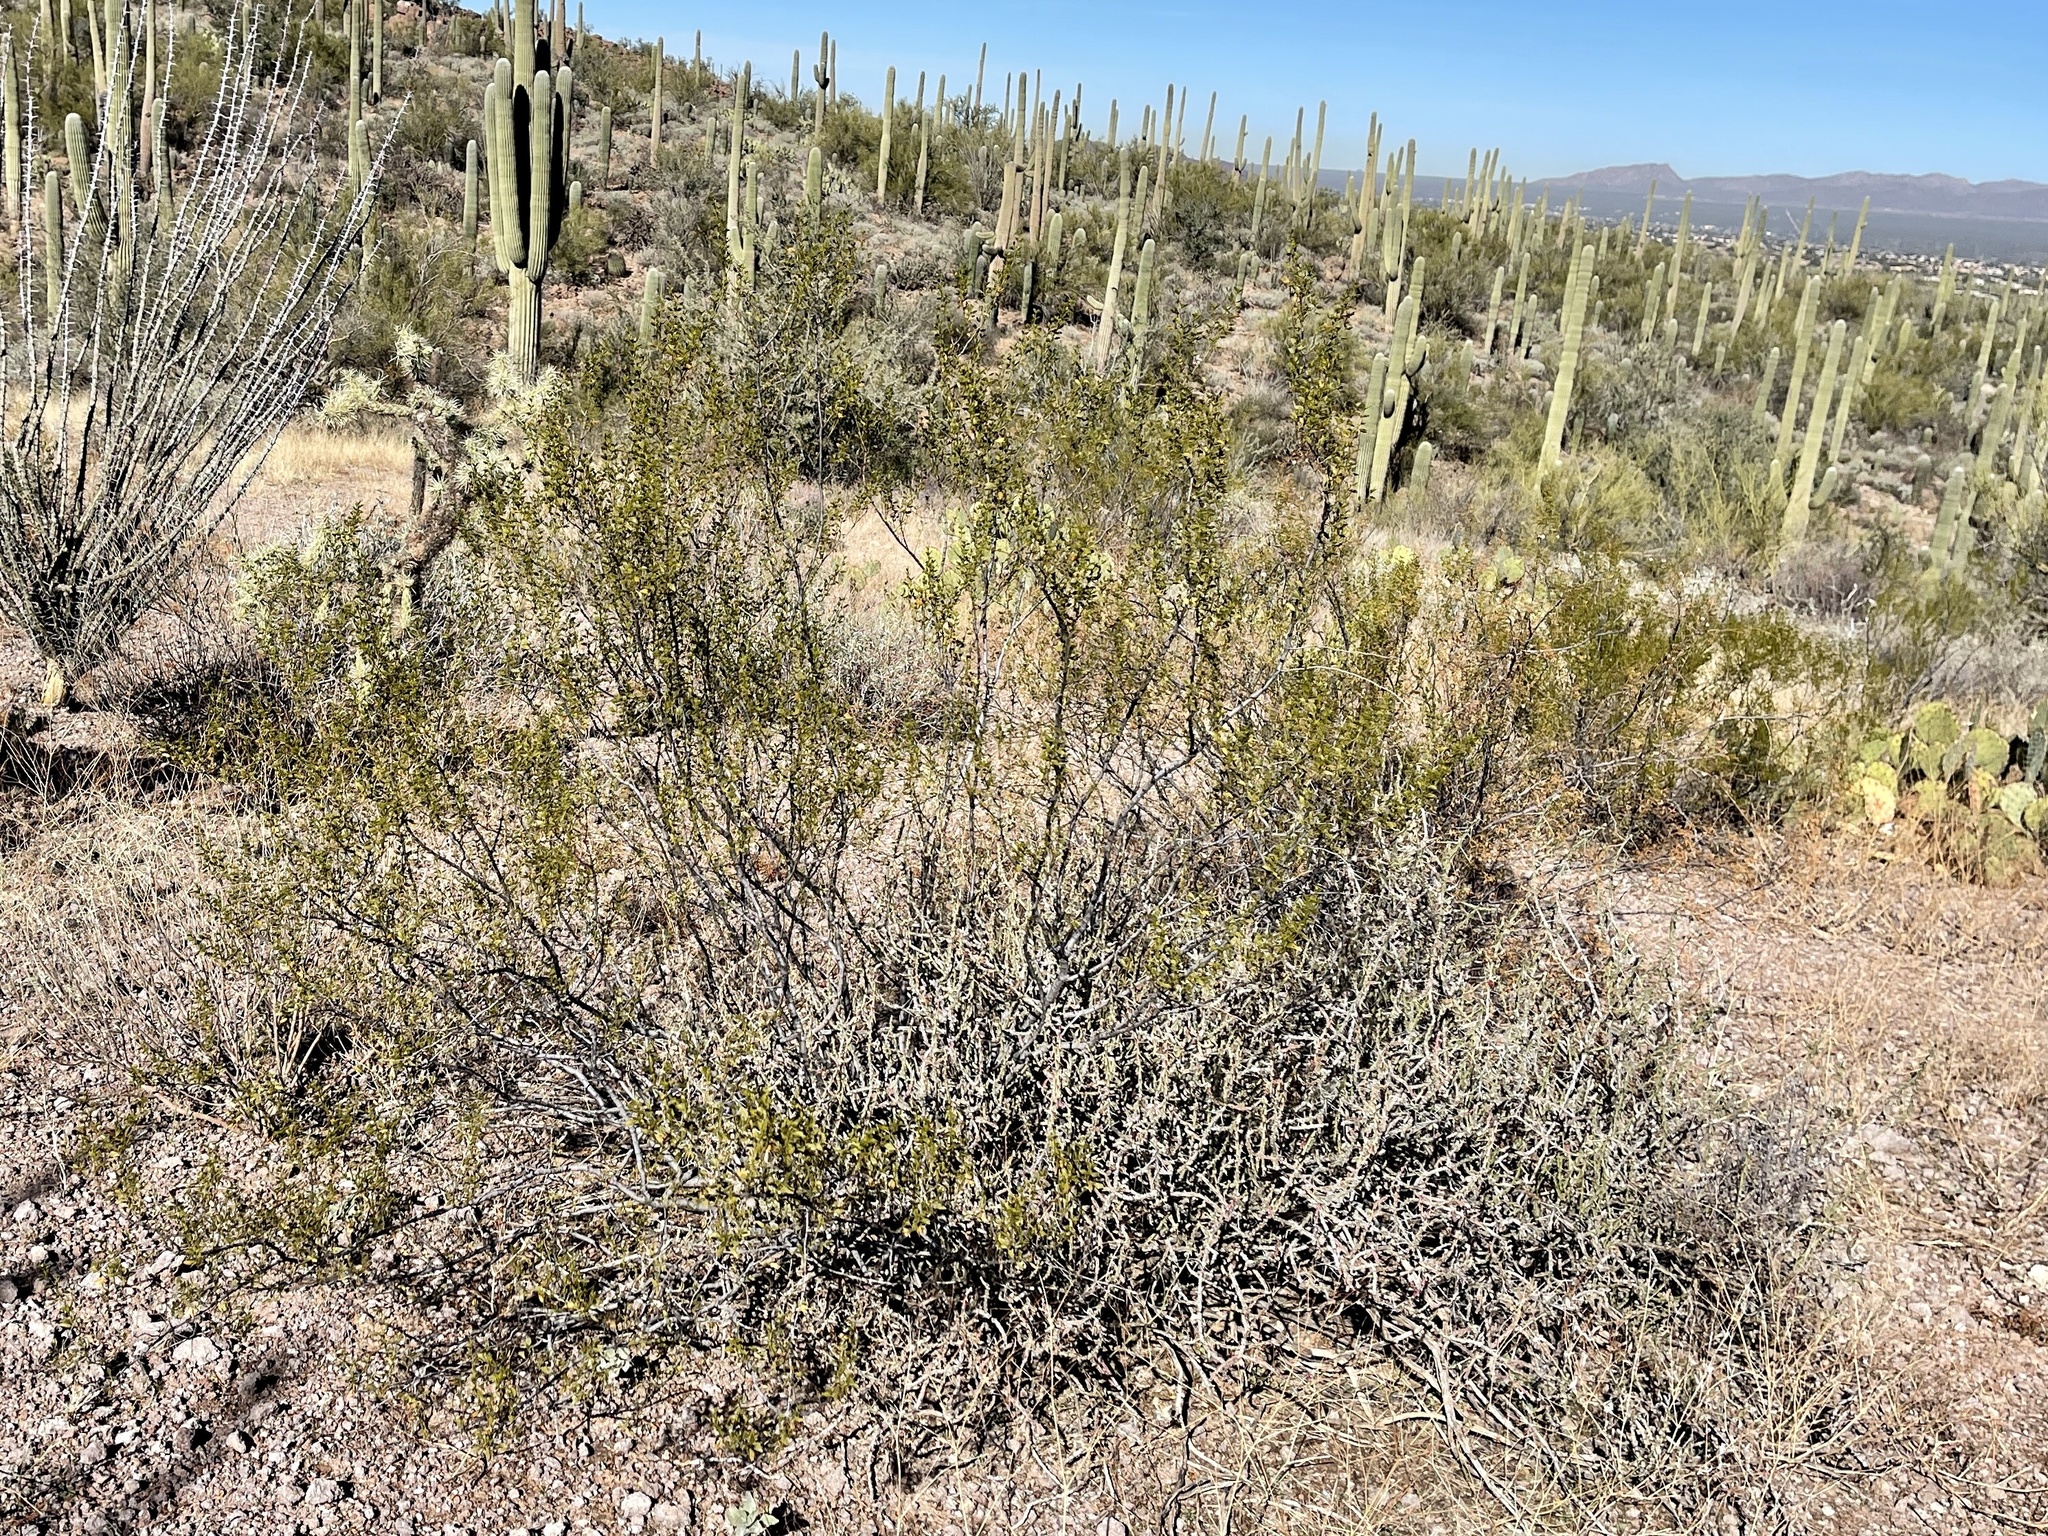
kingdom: Plantae
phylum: Tracheophyta
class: Magnoliopsida
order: Zygophyllales
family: Zygophyllaceae
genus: Larrea
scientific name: Larrea tridentata
